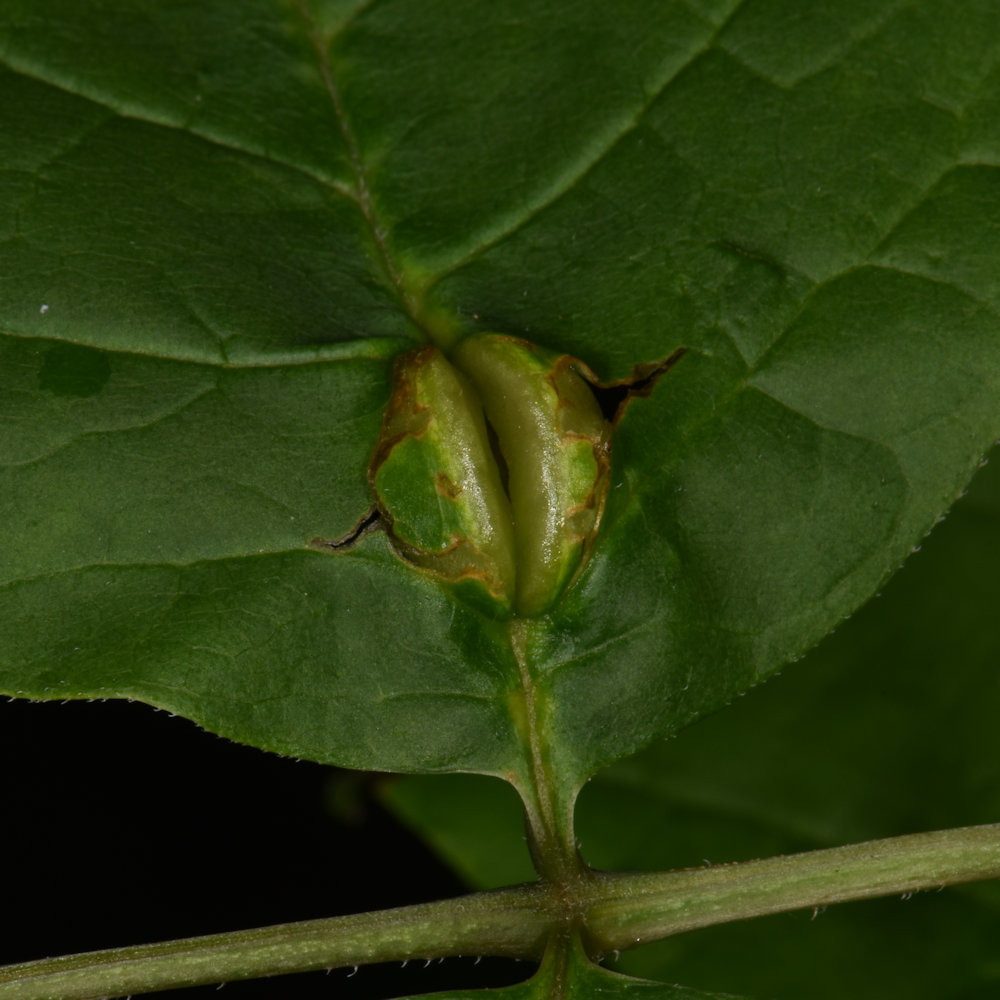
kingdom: Animalia
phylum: Arthropoda
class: Insecta
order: Diptera
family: Cecidomyiidae
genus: Dasineura
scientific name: Dasineura tumidosae
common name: Ash petiole gall midge
